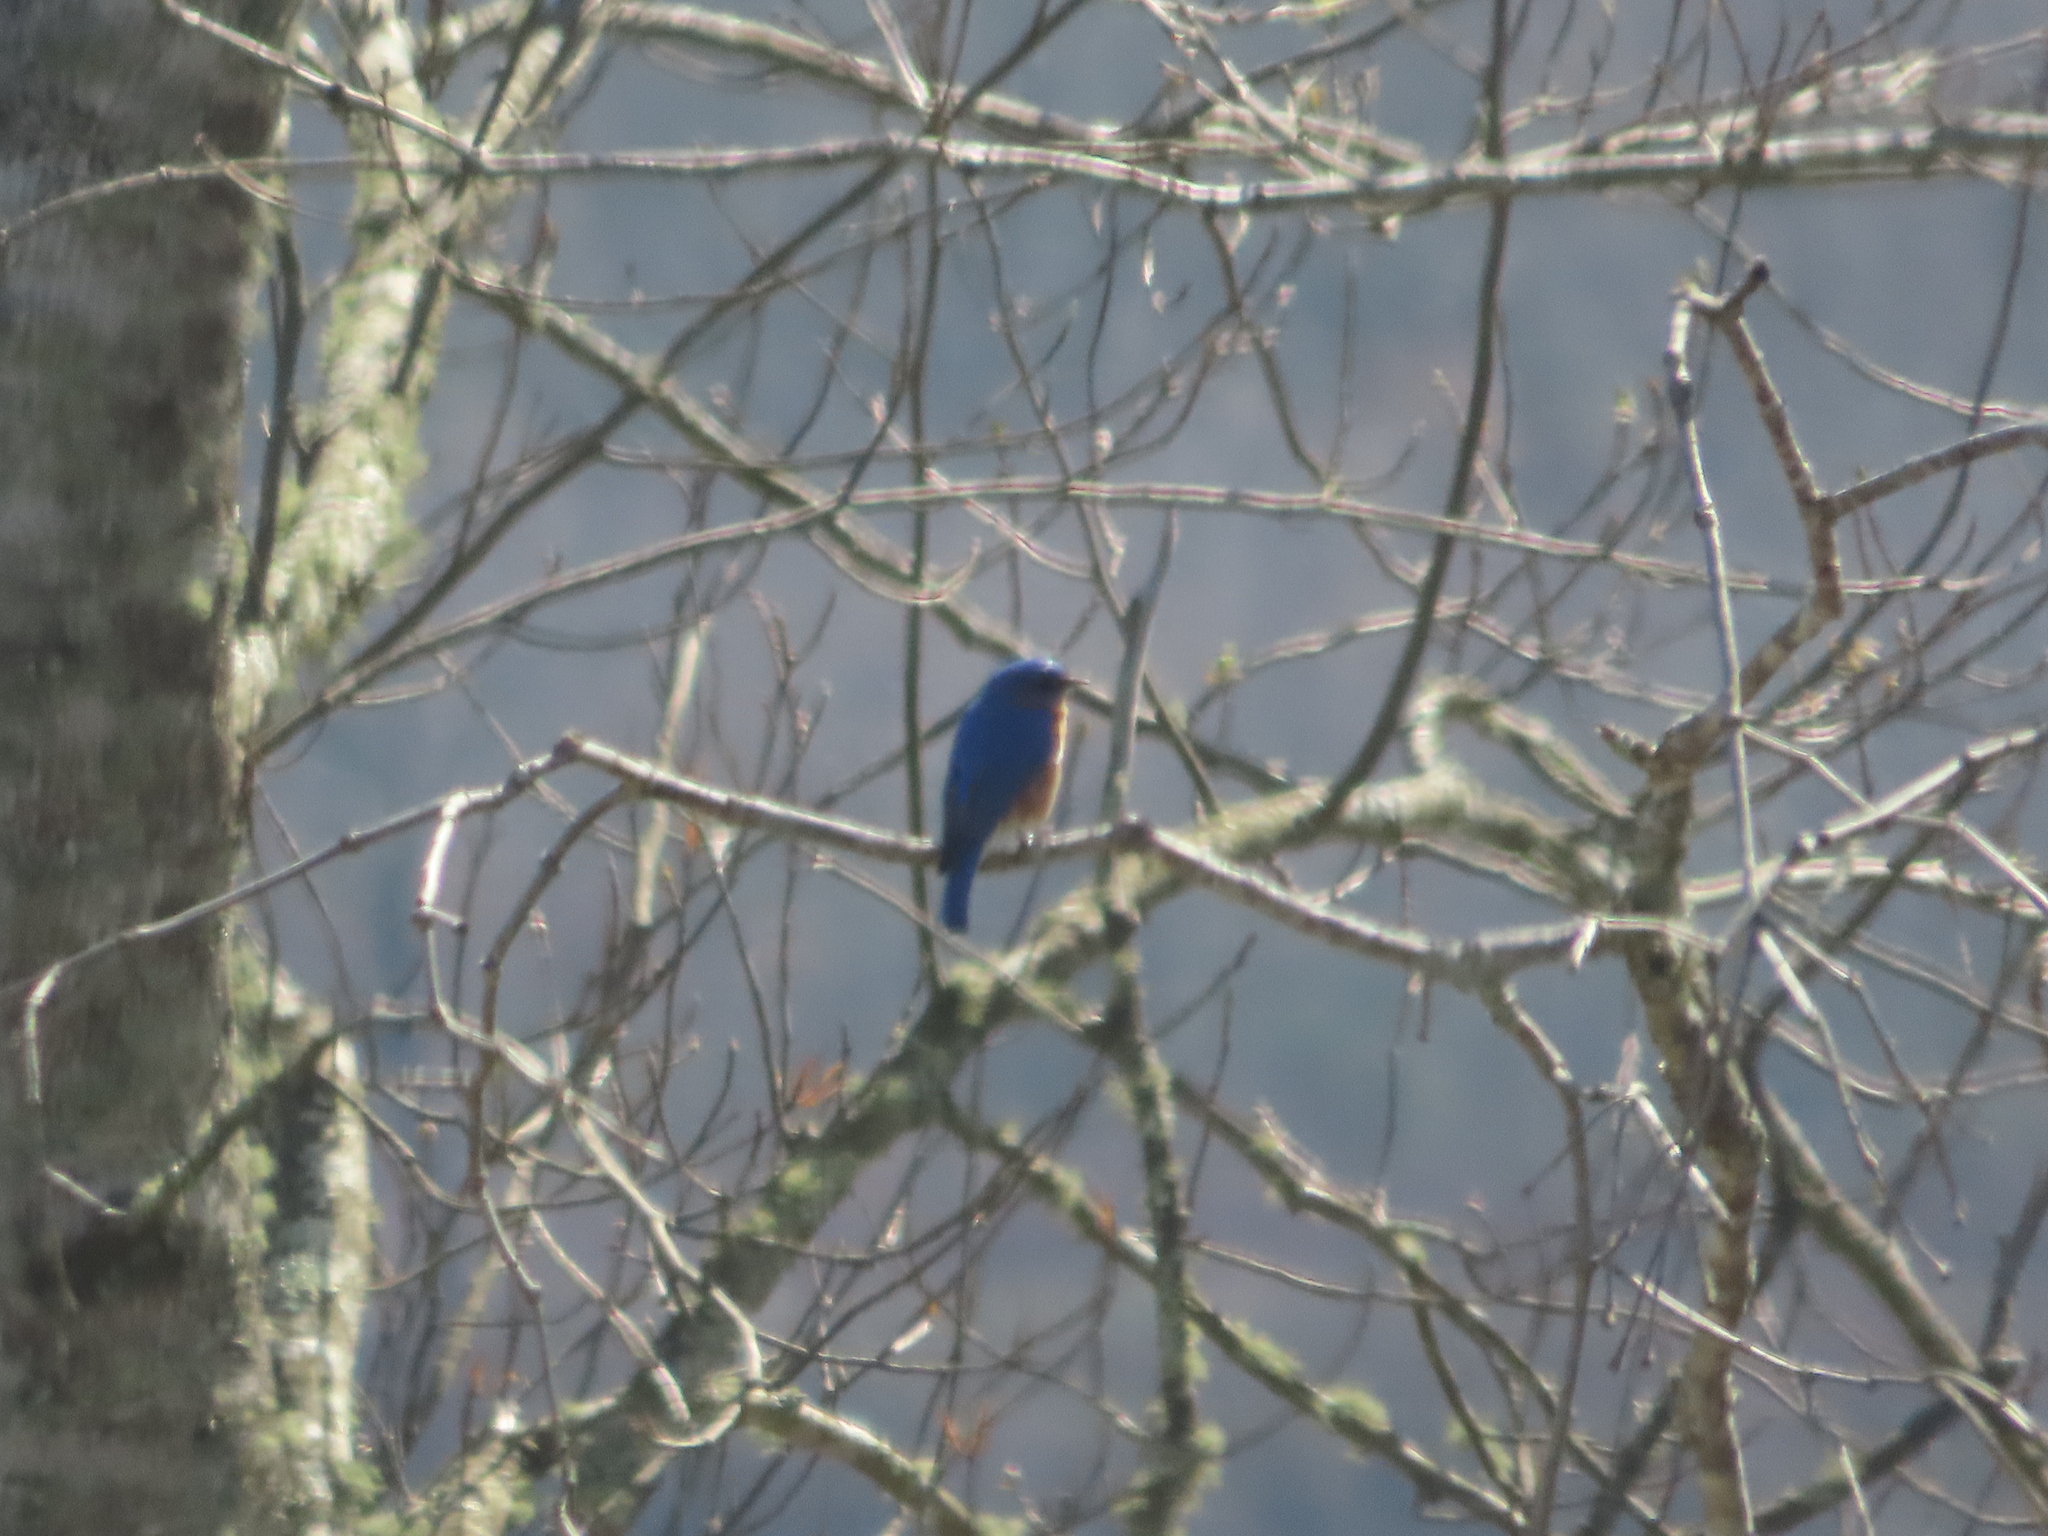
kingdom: Animalia
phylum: Chordata
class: Aves
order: Passeriformes
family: Turdidae
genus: Sialia
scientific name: Sialia sialis
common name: Eastern bluebird
